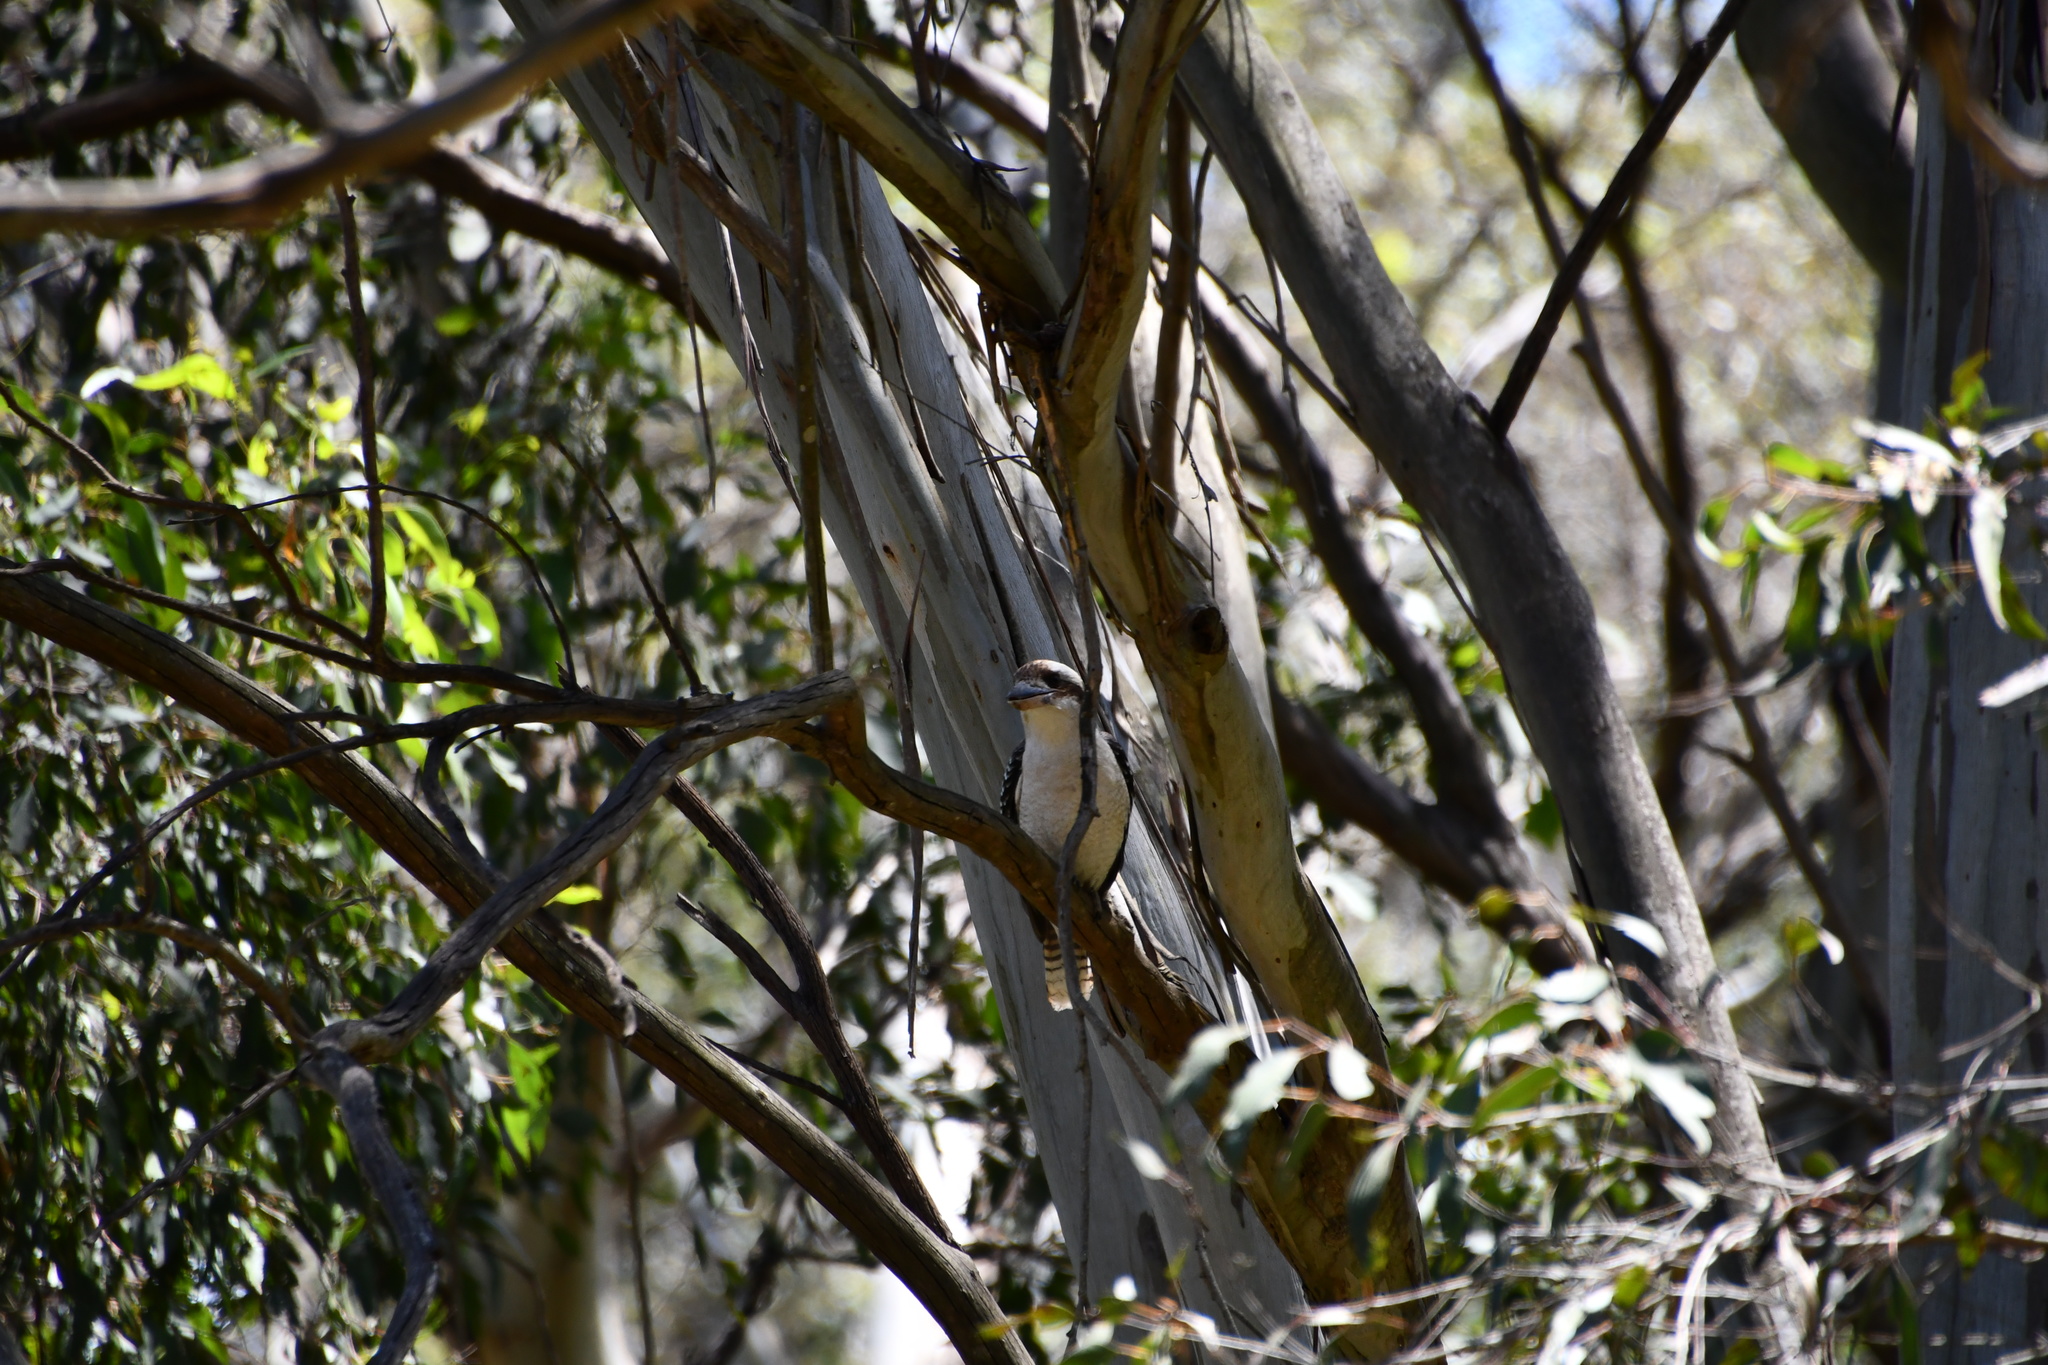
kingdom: Animalia
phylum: Chordata
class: Aves
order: Coraciiformes
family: Alcedinidae
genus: Dacelo
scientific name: Dacelo novaeguineae
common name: Laughing kookaburra
